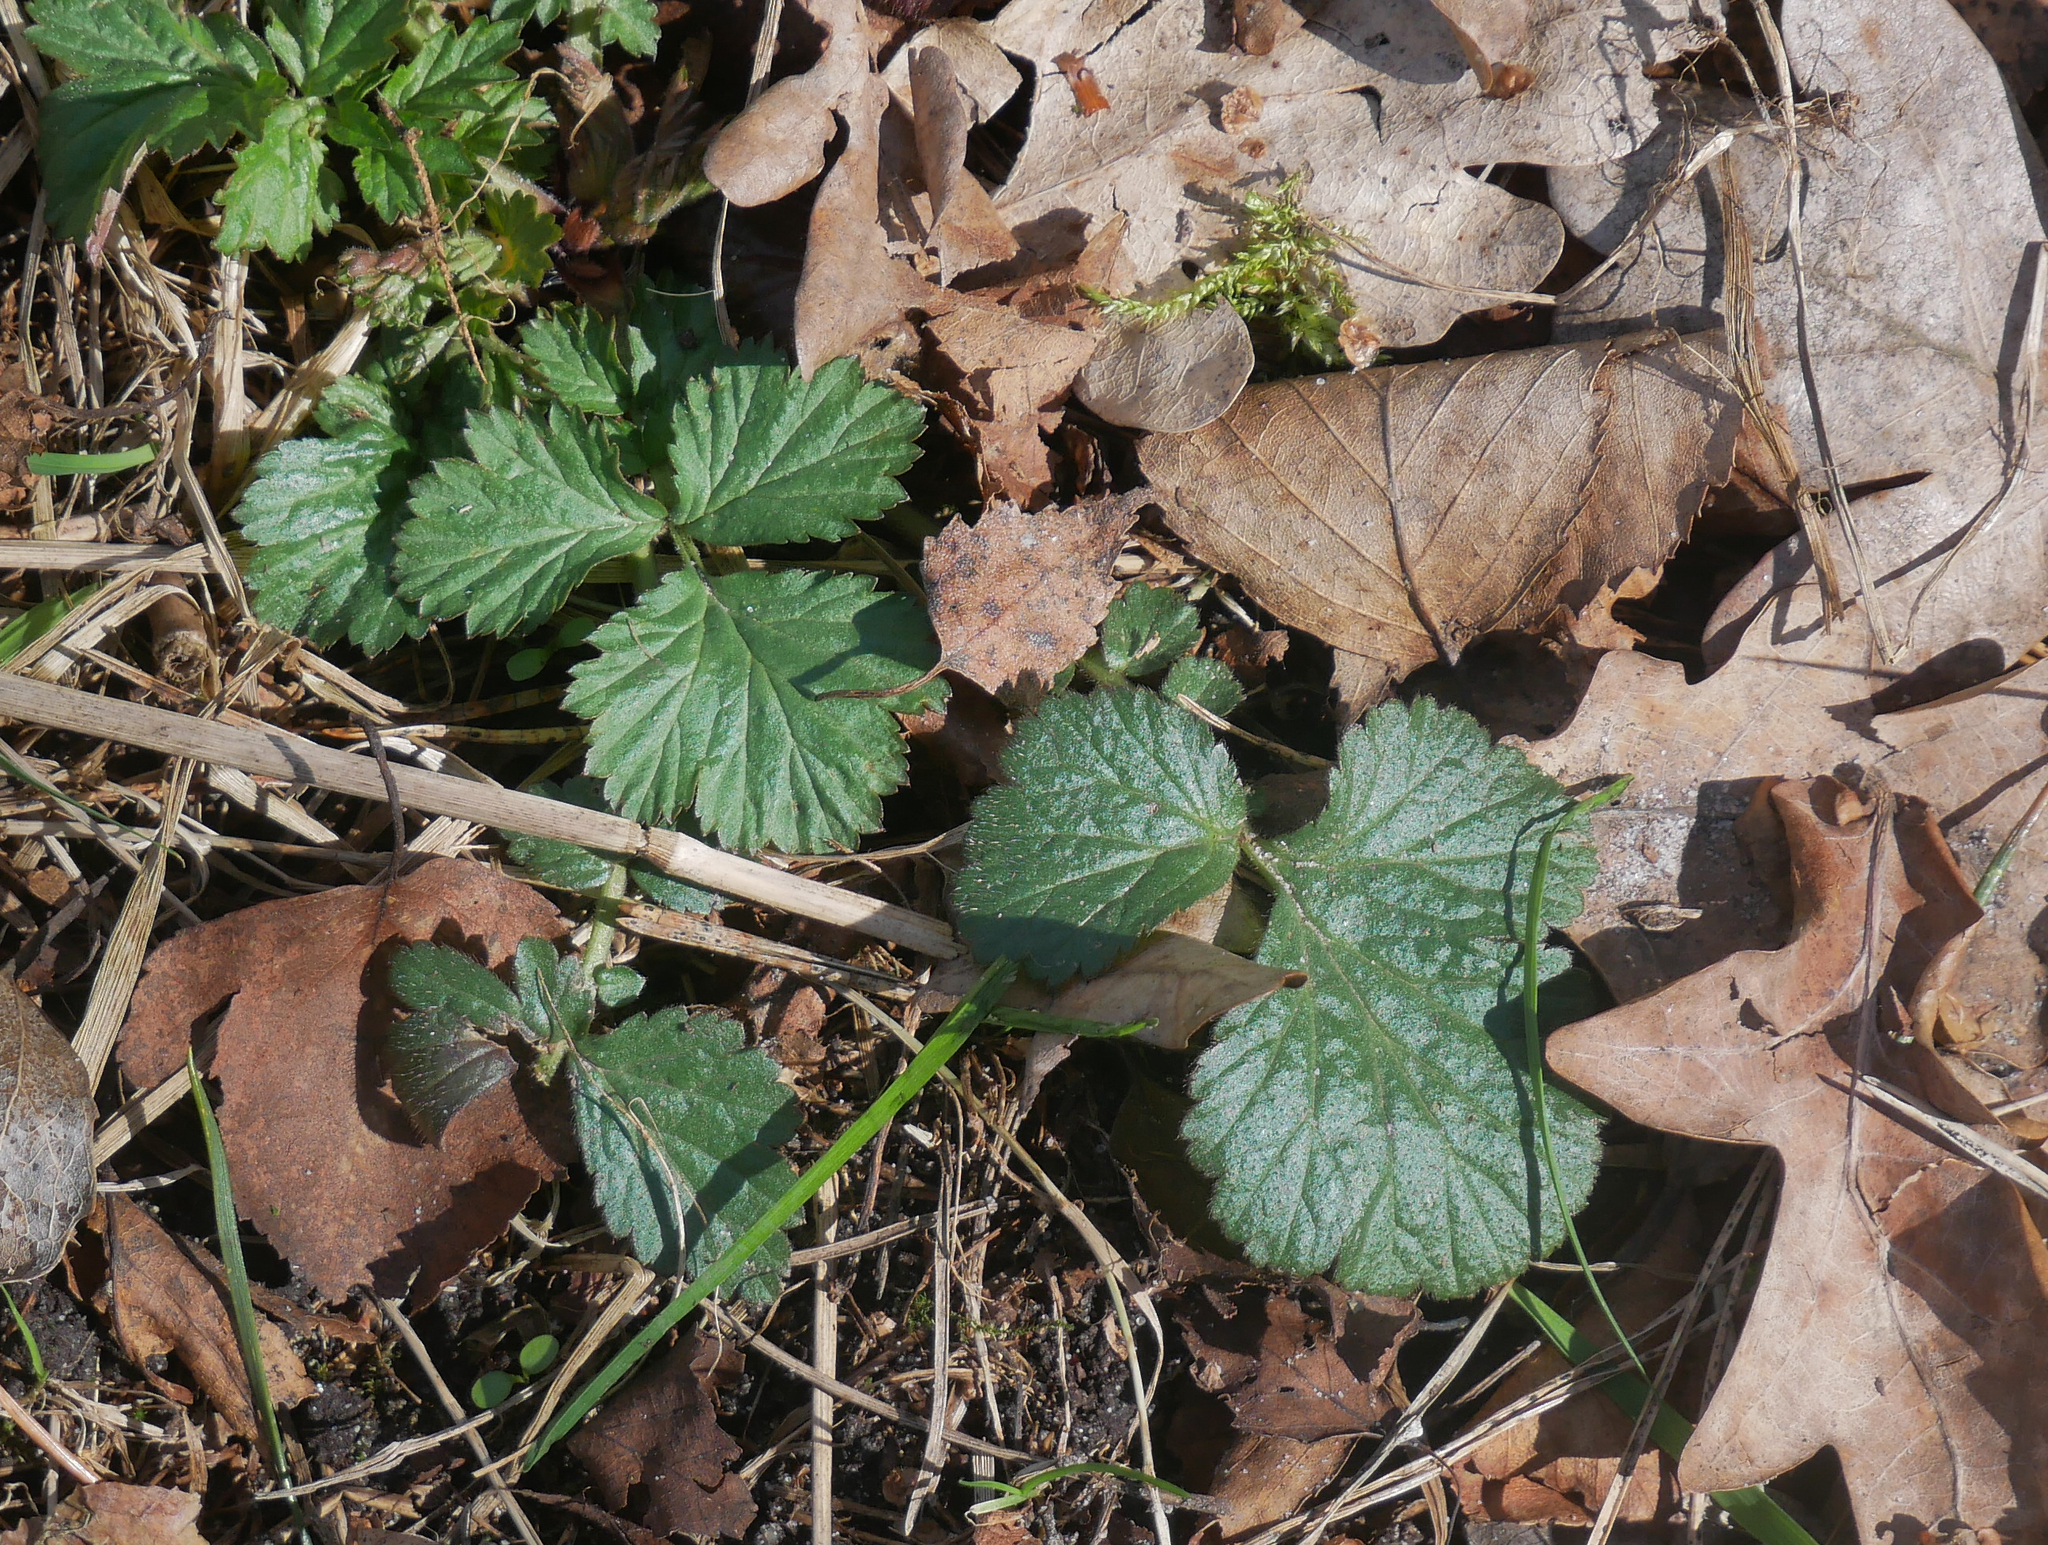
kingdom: Plantae
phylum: Tracheophyta
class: Magnoliopsida
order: Rosales
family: Rosaceae
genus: Geum
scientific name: Geum urbanum
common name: Wood avens
